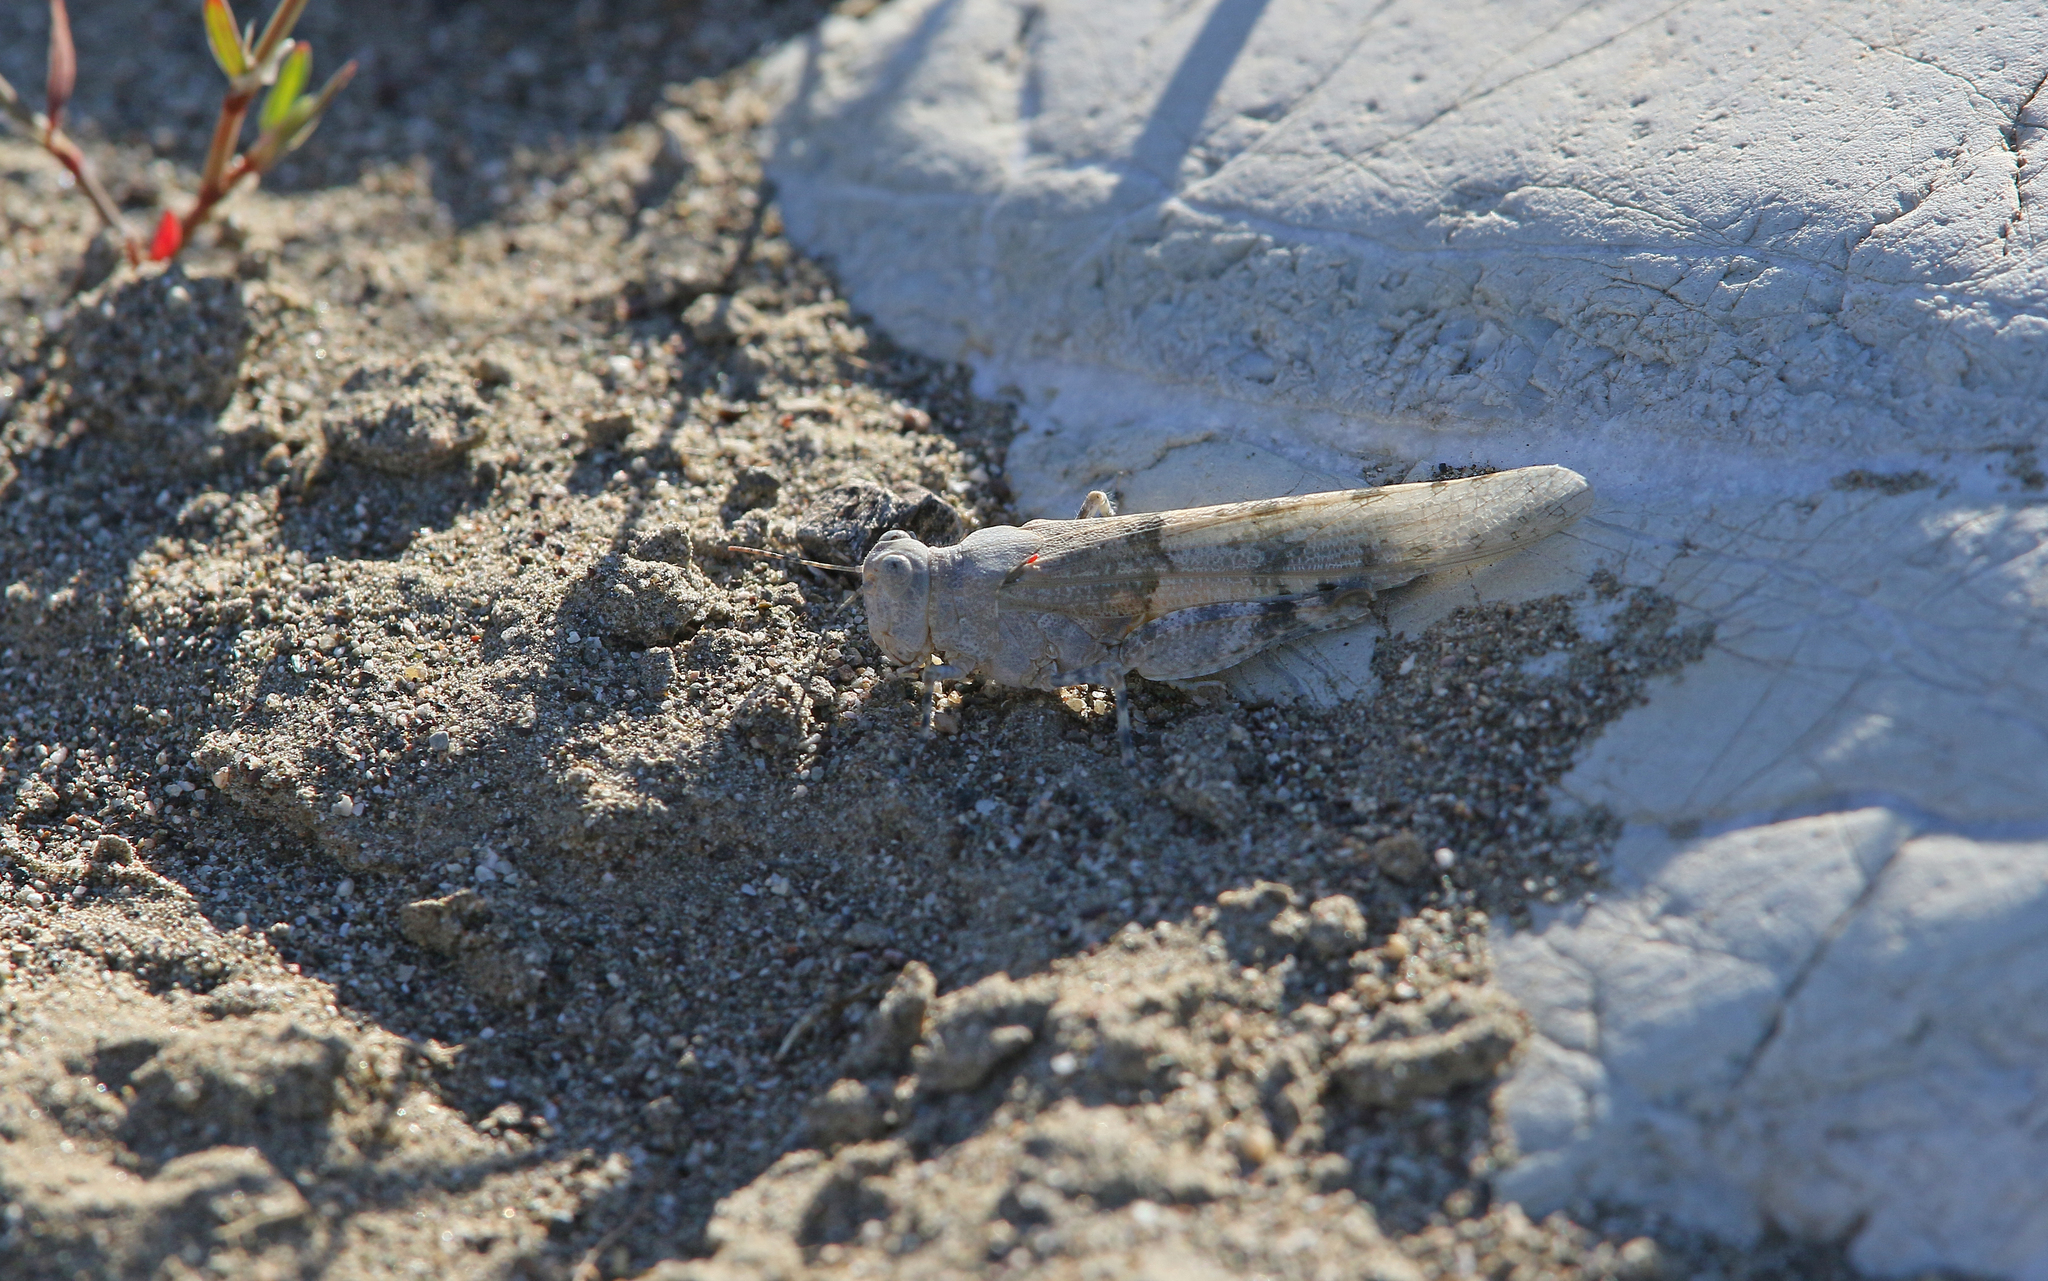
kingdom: Animalia
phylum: Arthropoda
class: Insecta
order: Orthoptera
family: Acrididae
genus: Sphingonotus
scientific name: Sphingonotus caerulans
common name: Blue-winged locust
